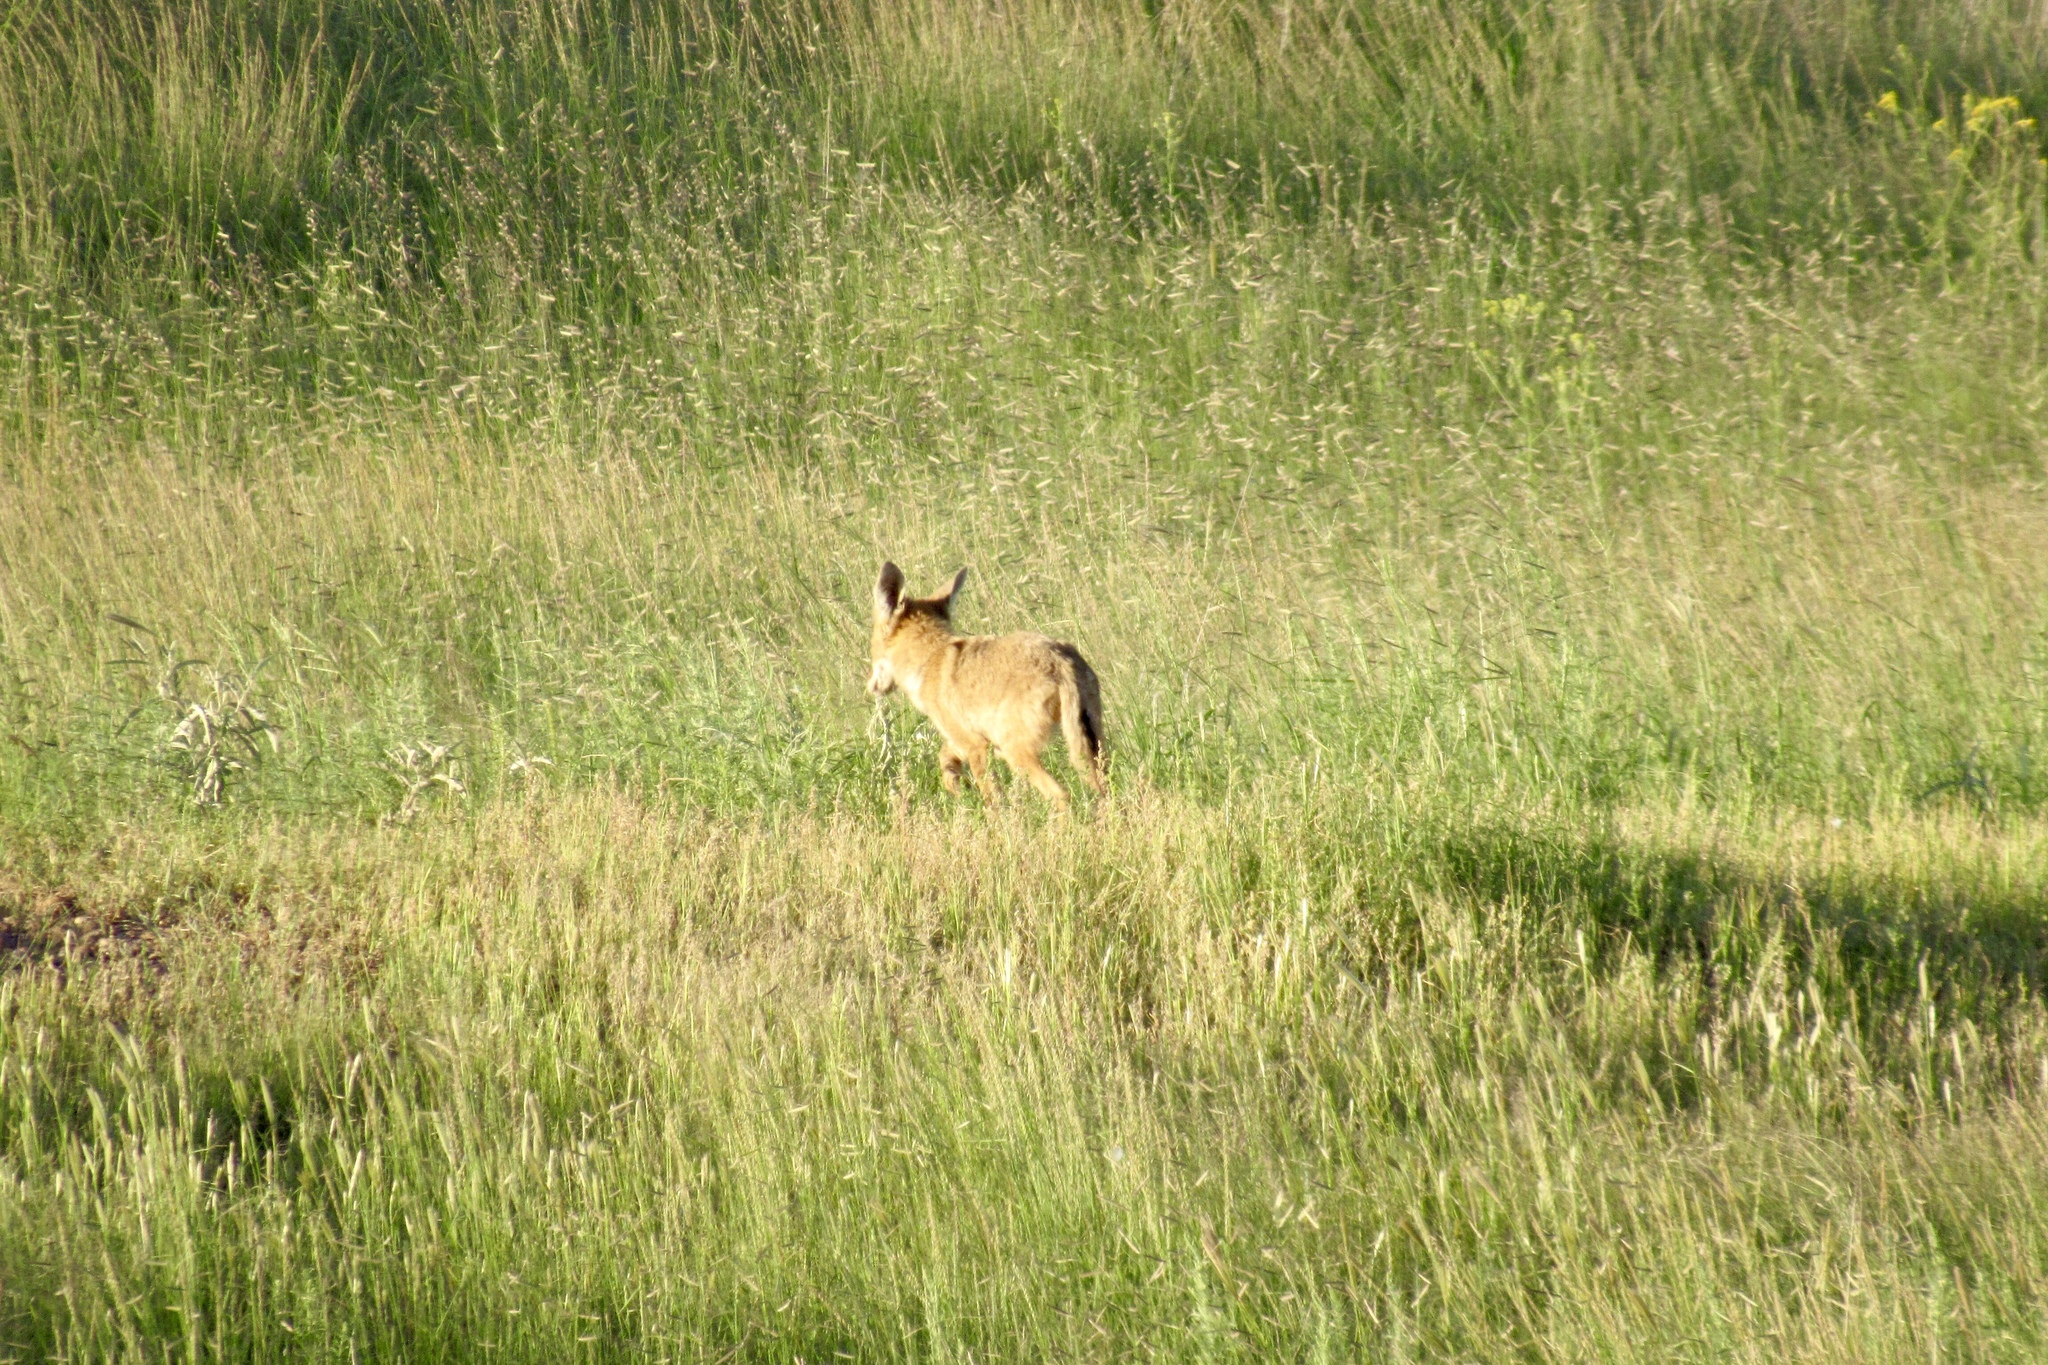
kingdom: Animalia
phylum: Chordata
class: Mammalia
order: Carnivora
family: Canidae
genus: Canis
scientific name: Canis latrans
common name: Coyote
